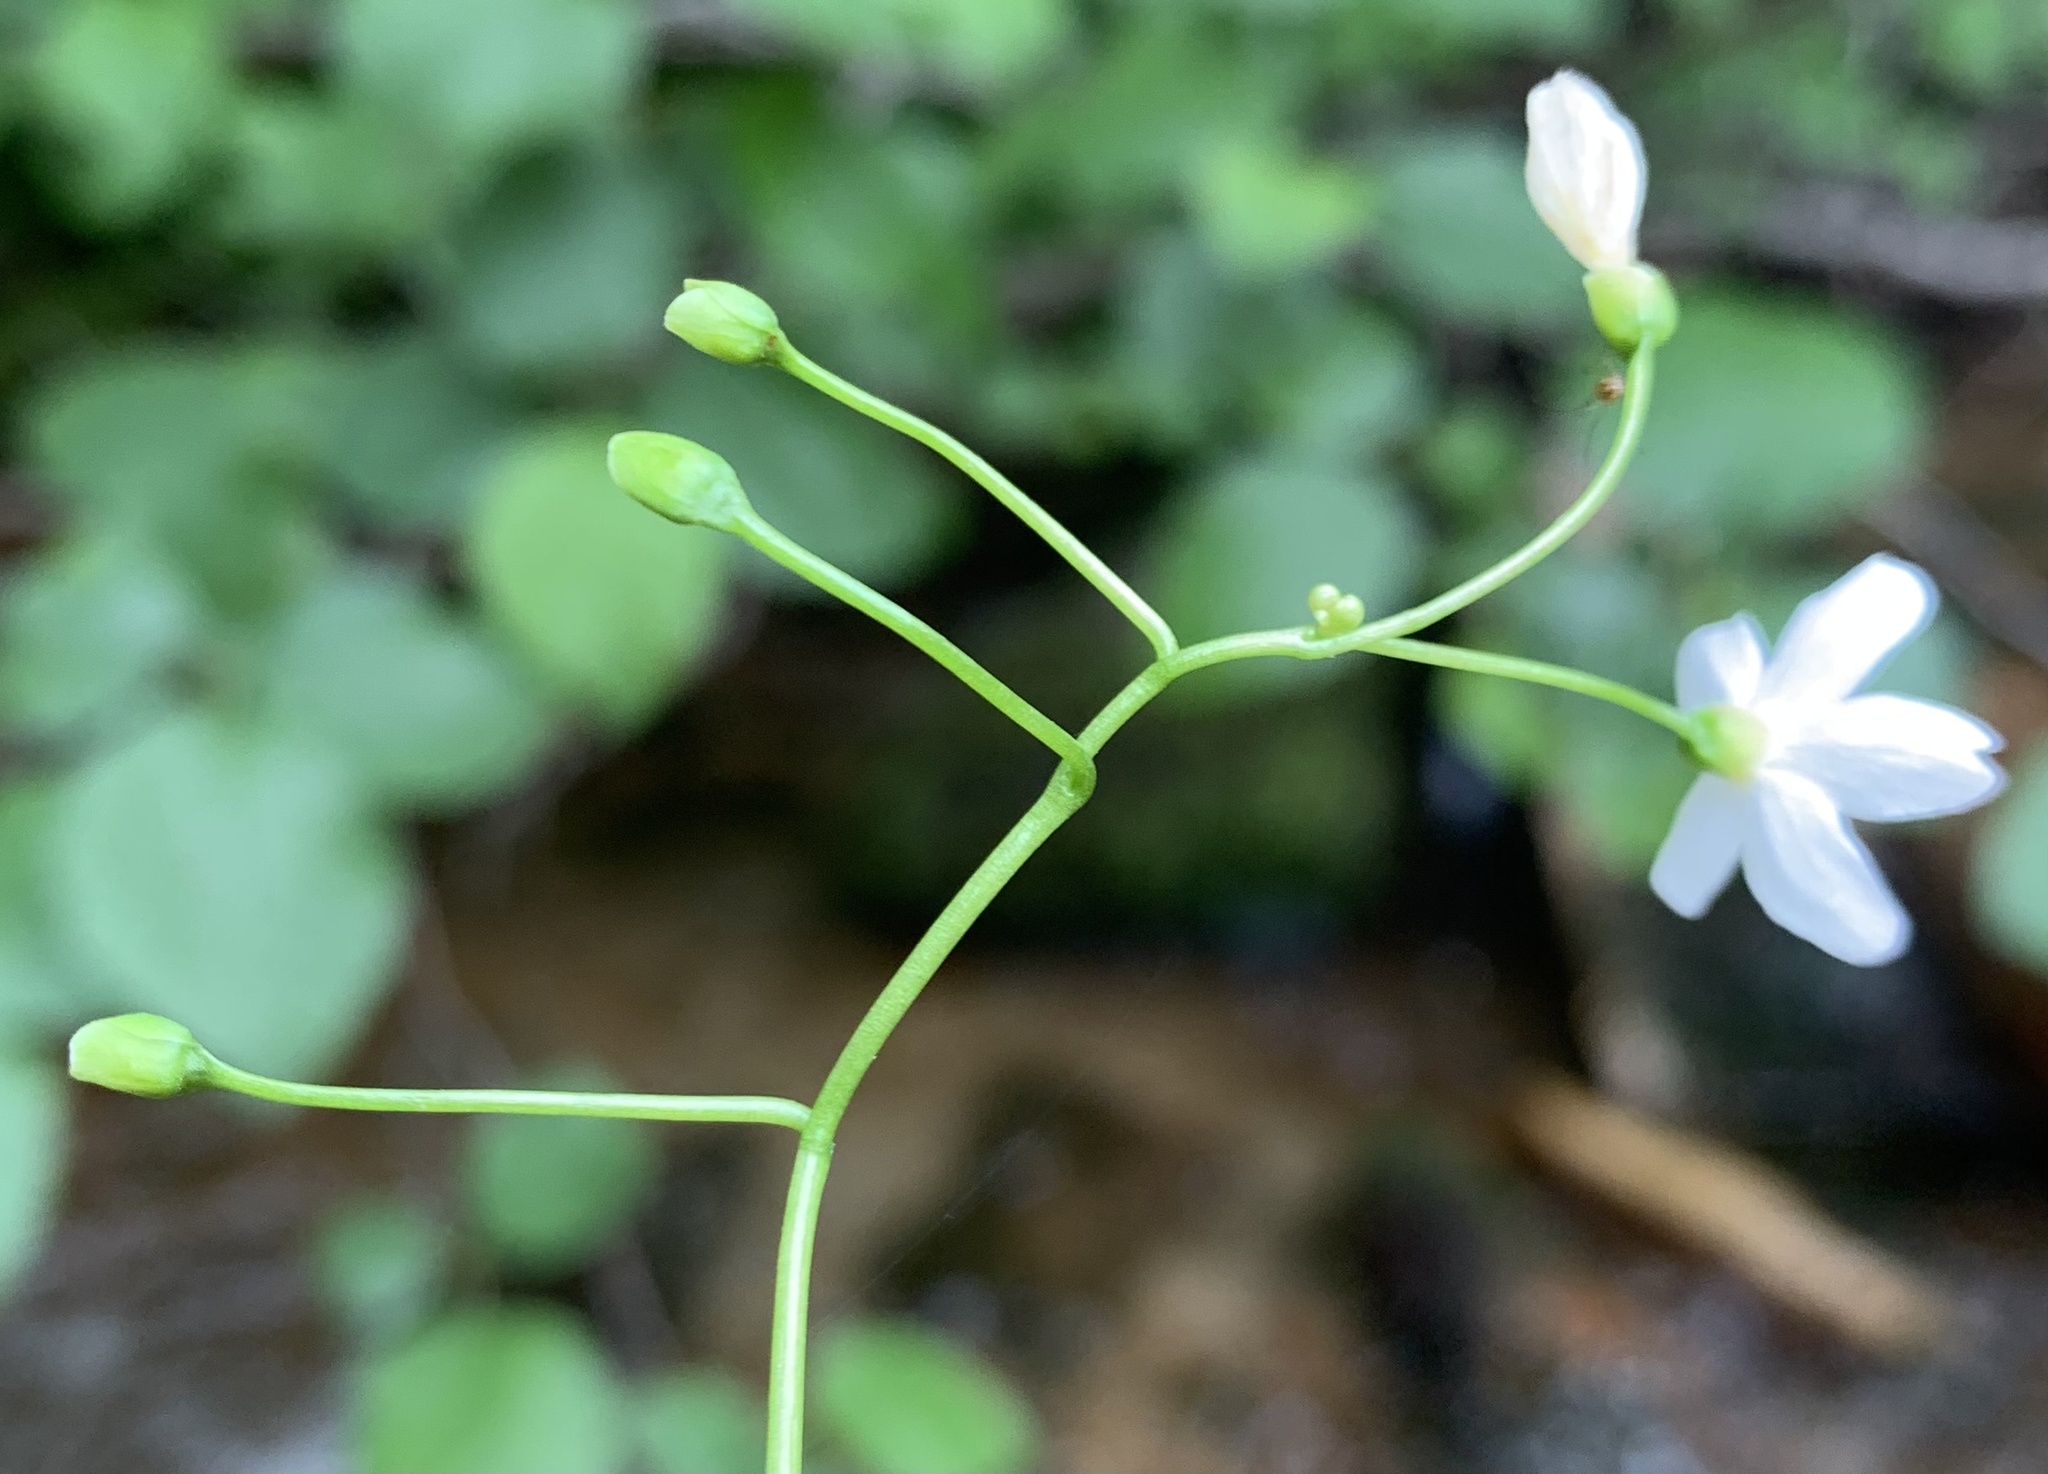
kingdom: Plantae
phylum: Tracheophyta
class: Magnoliopsida
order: Caryophyllales
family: Montiaceae
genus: Claytonia
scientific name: Claytonia cordifolia
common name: Broad-leaved spring beauty
